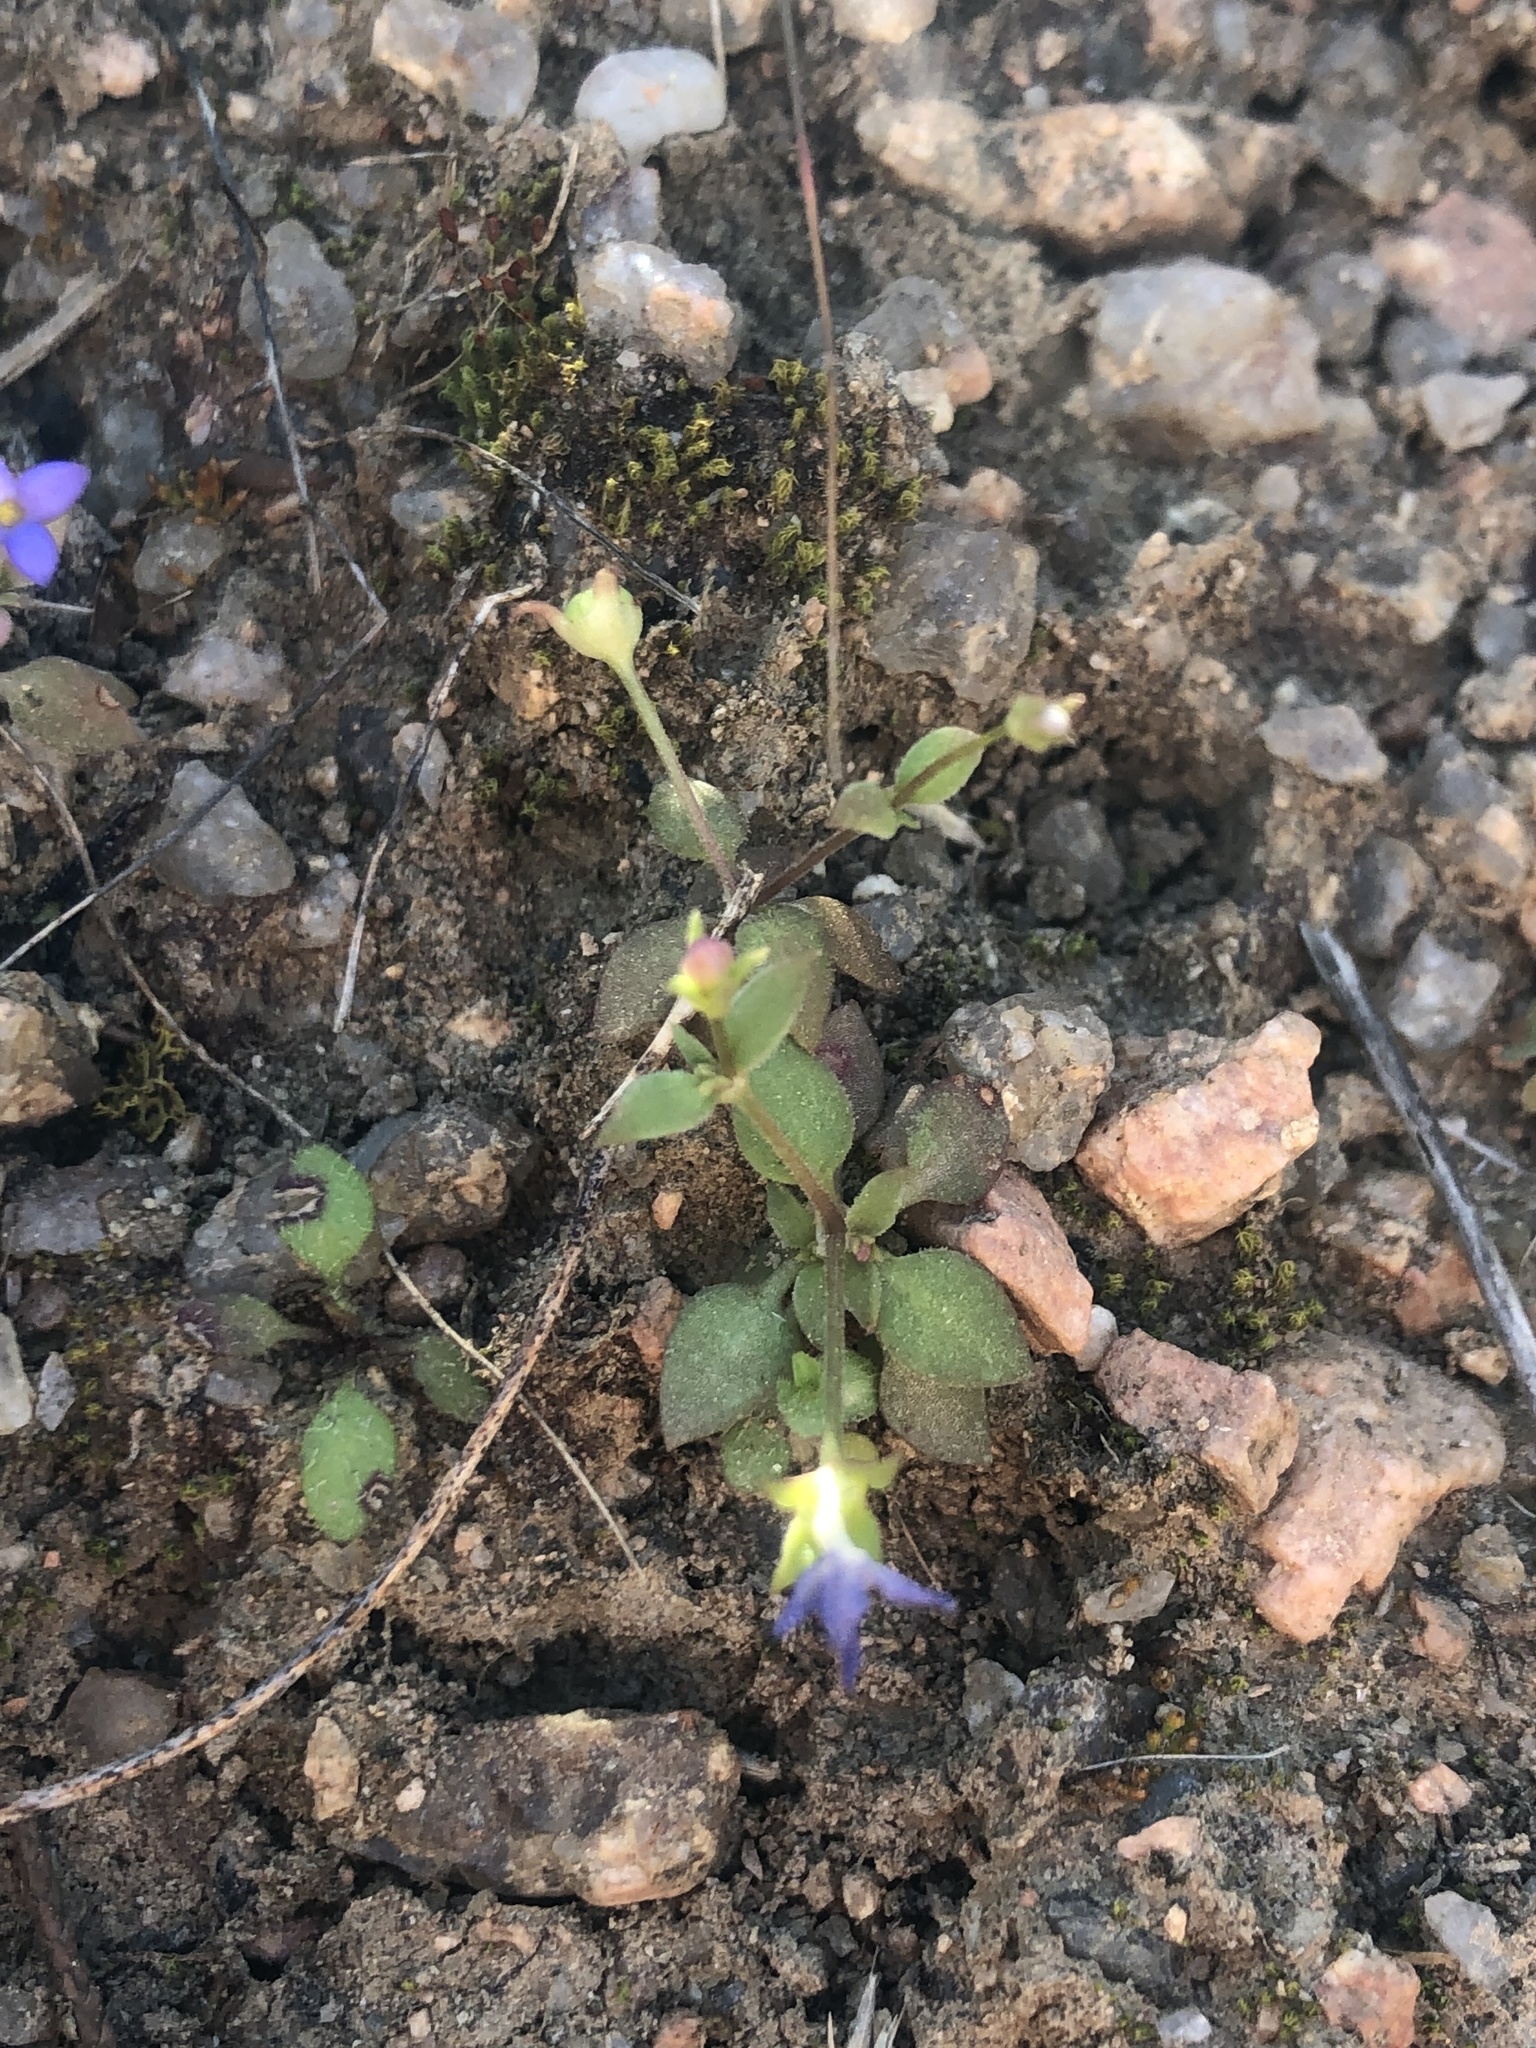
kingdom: Plantae
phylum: Tracheophyta
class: Magnoliopsida
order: Gentianales
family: Rubiaceae
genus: Houstonia
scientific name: Houstonia pusilla
